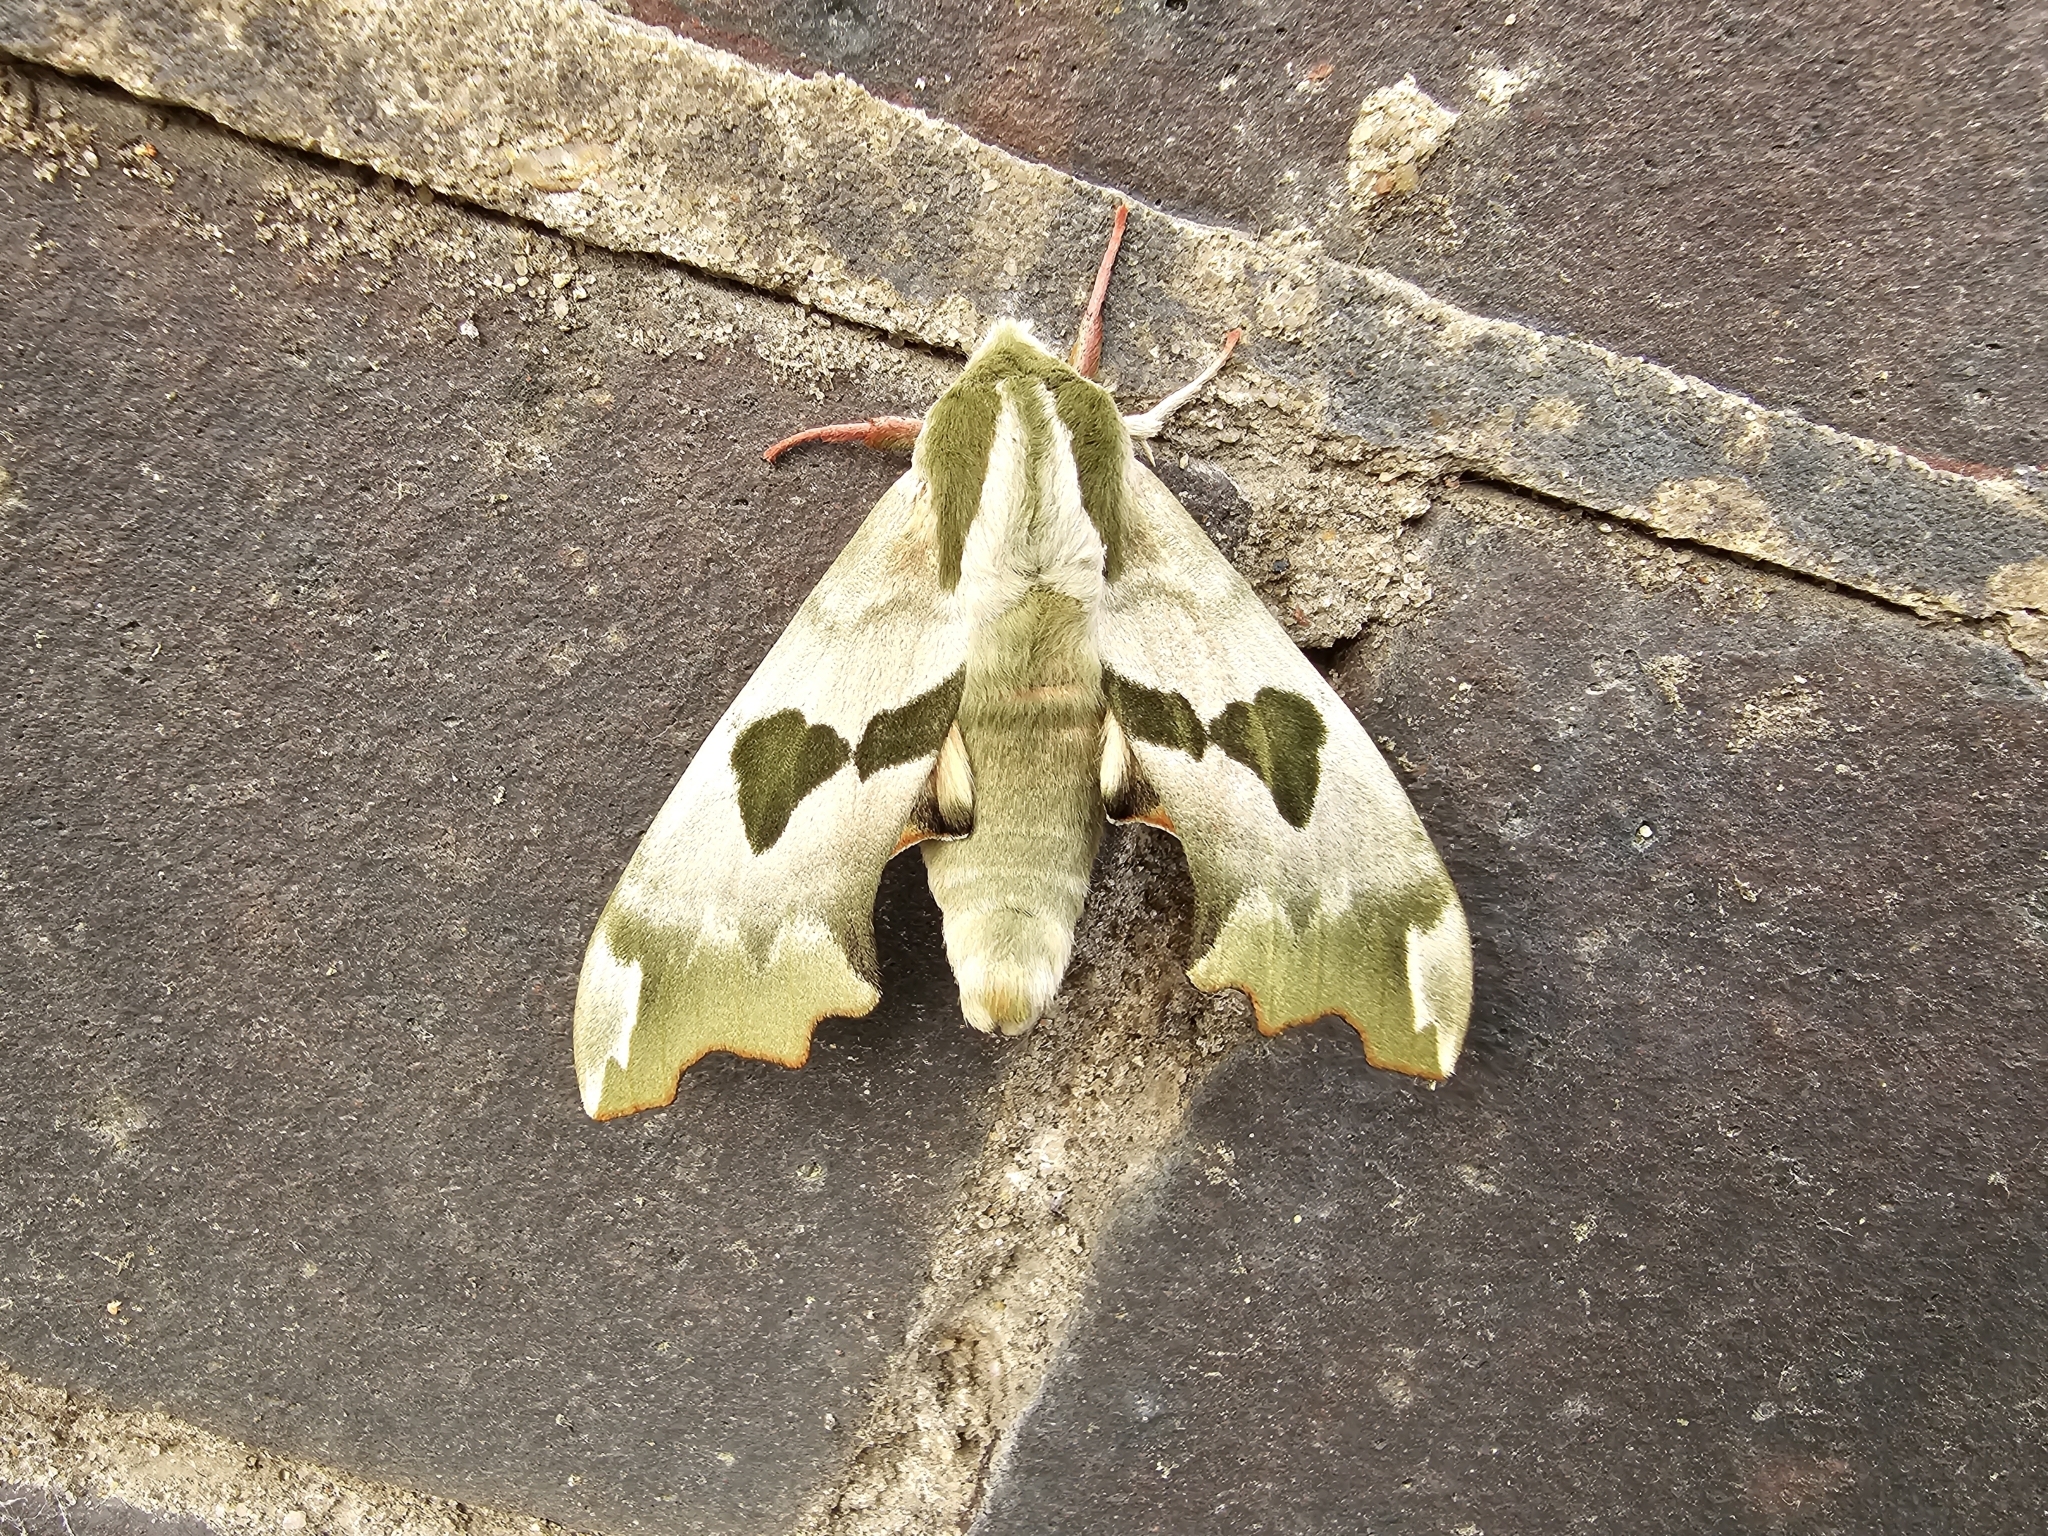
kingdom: Animalia
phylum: Arthropoda
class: Insecta
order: Lepidoptera
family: Sphingidae
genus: Mimas
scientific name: Mimas tiliae
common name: Lime hawk-moth
